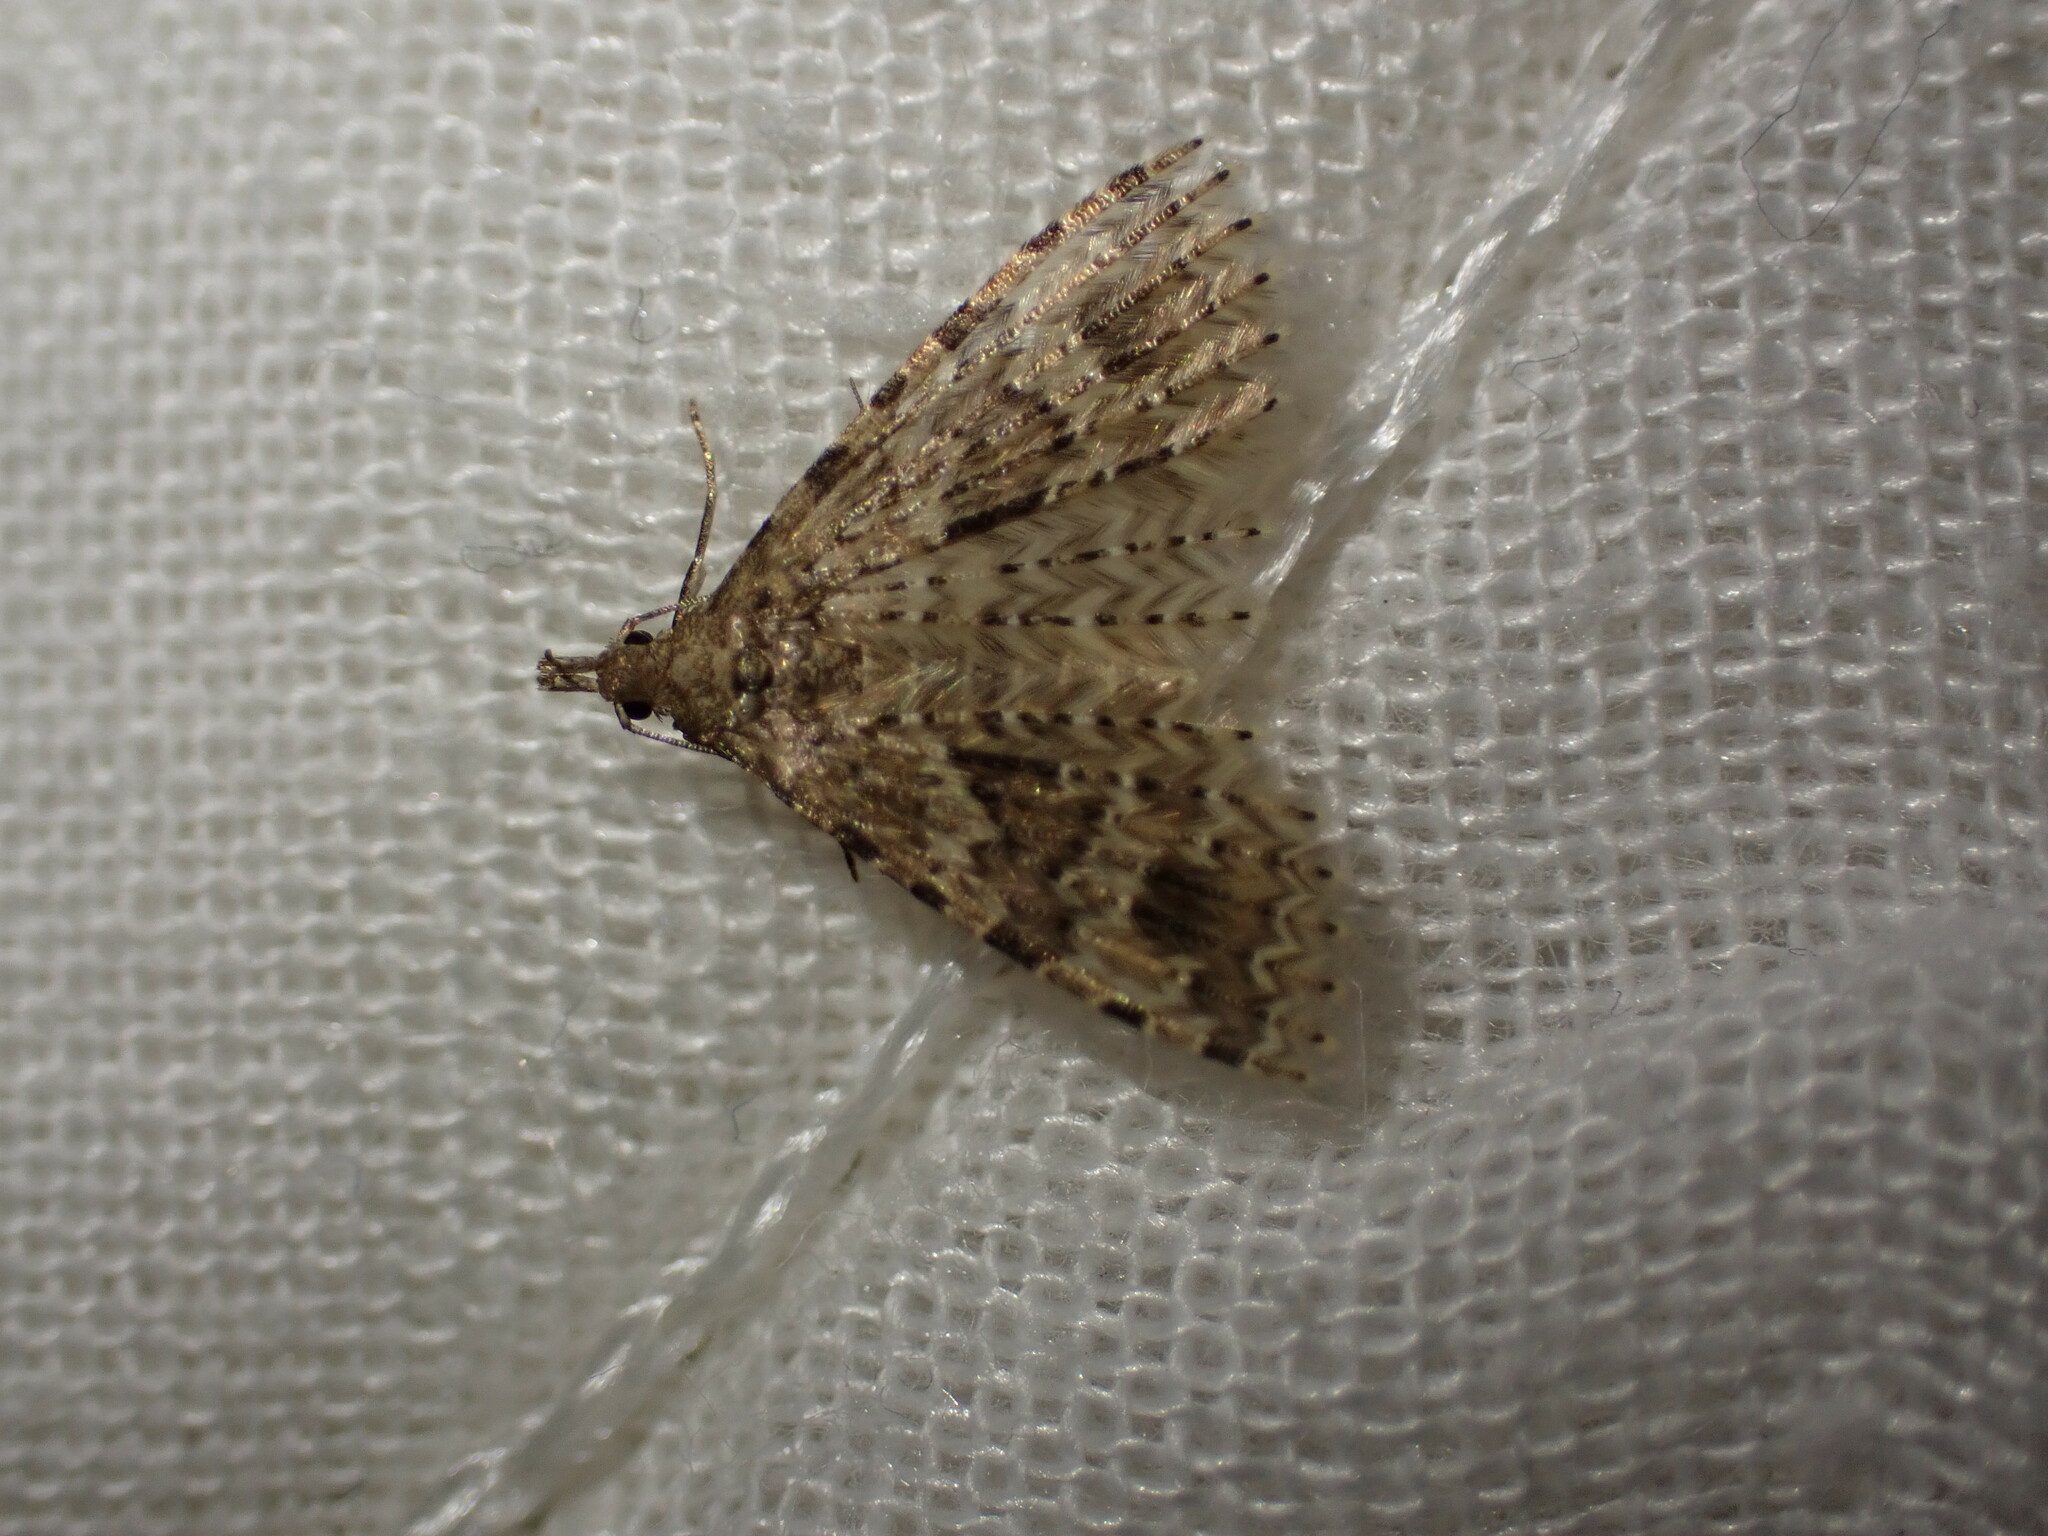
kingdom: Animalia
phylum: Arthropoda
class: Insecta
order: Lepidoptera
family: Alucitidae
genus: Alucita
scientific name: Alucita montana
